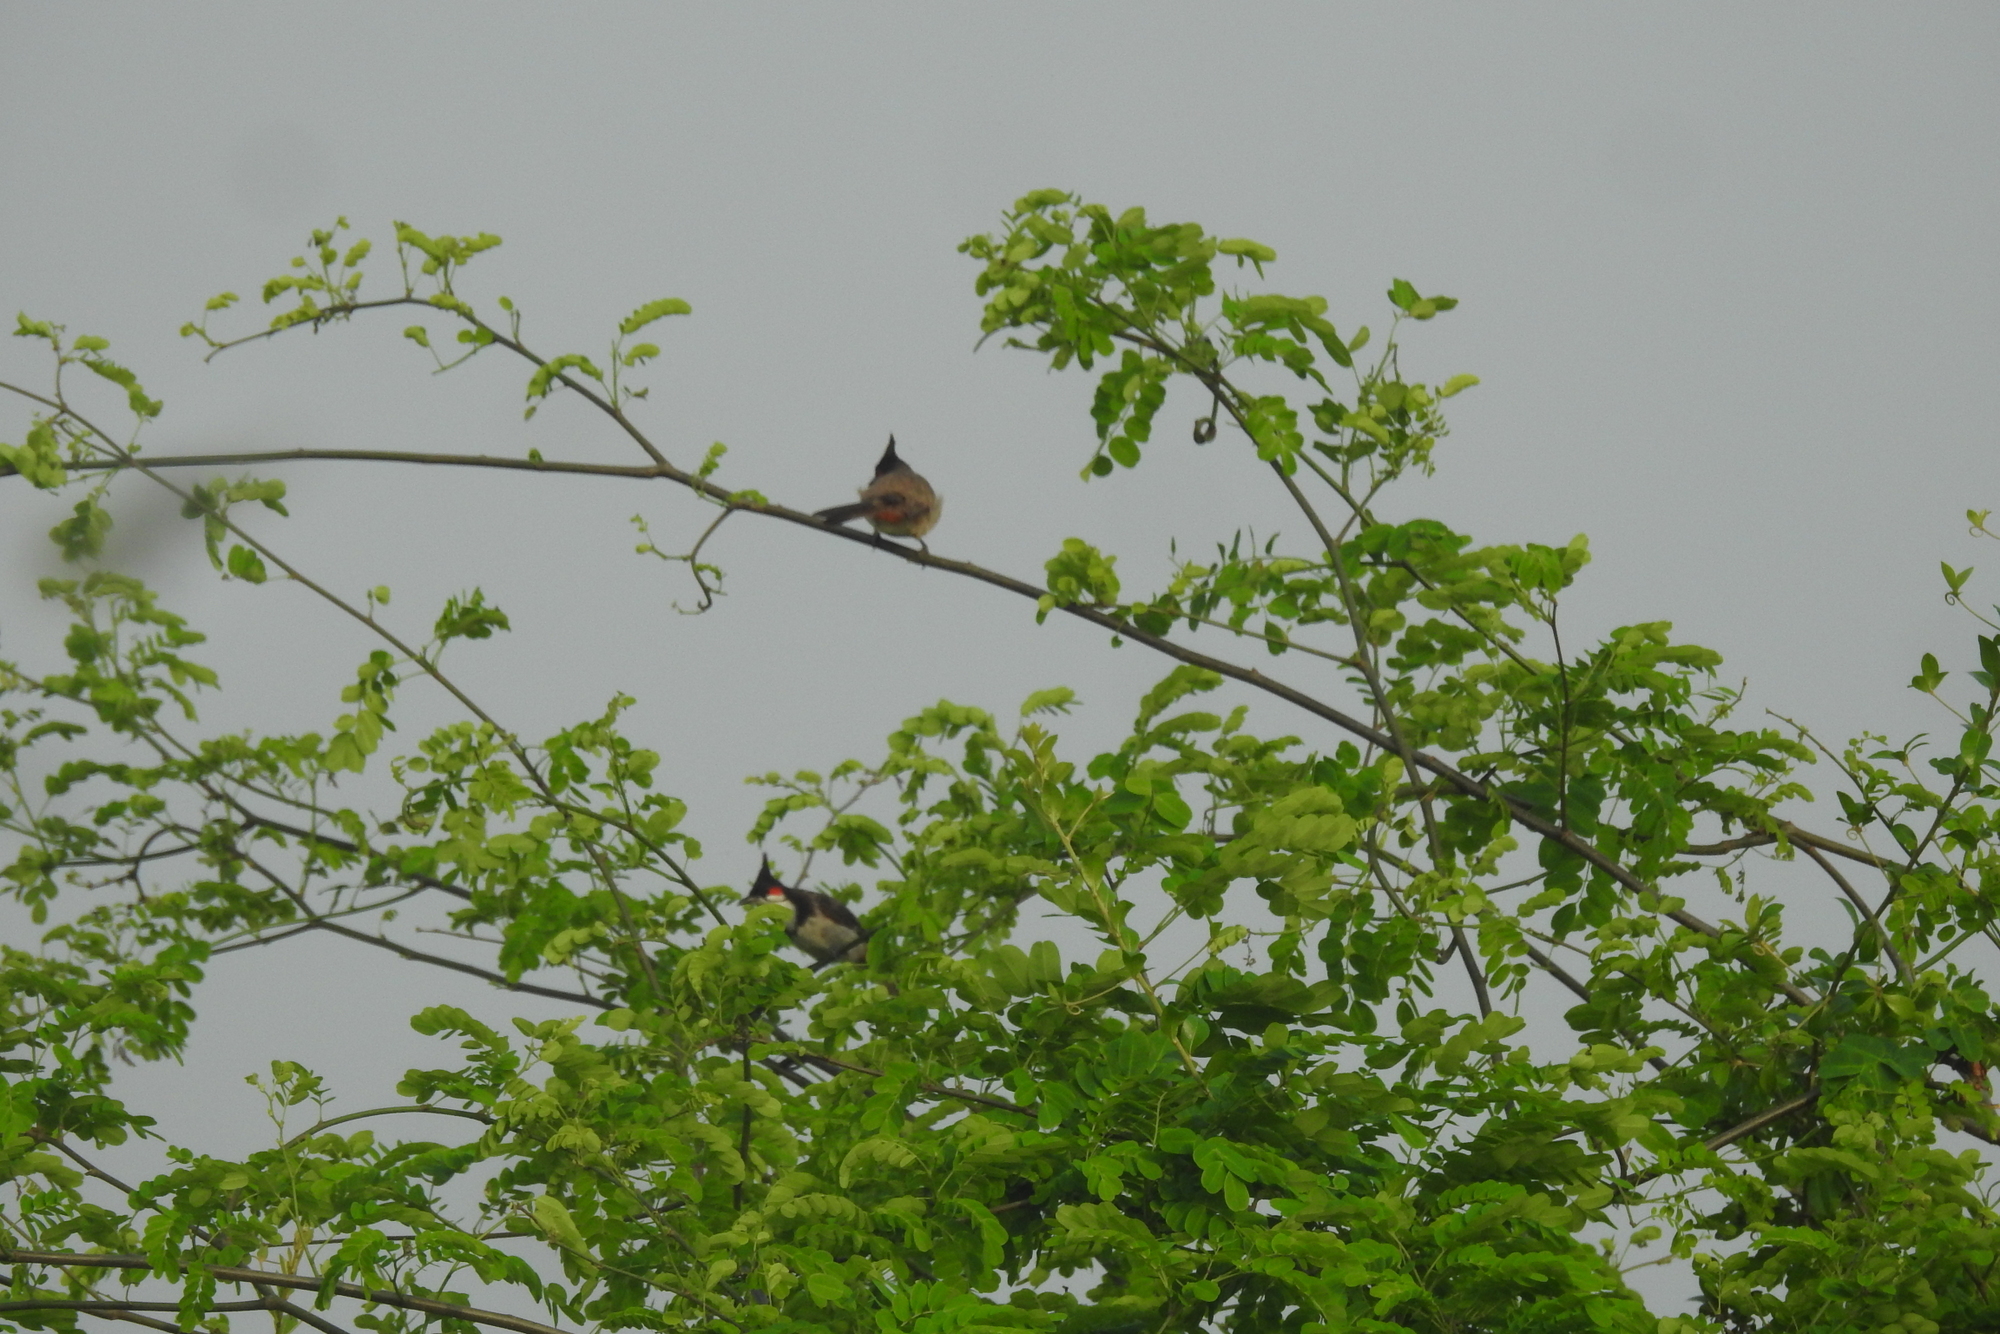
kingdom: Animalia
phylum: Chordata
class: Aves
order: Passeriformes
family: Pycnonotidae
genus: Pycnonotus
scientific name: Pycnonotus jocosus
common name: Red-whiskered bulbul
